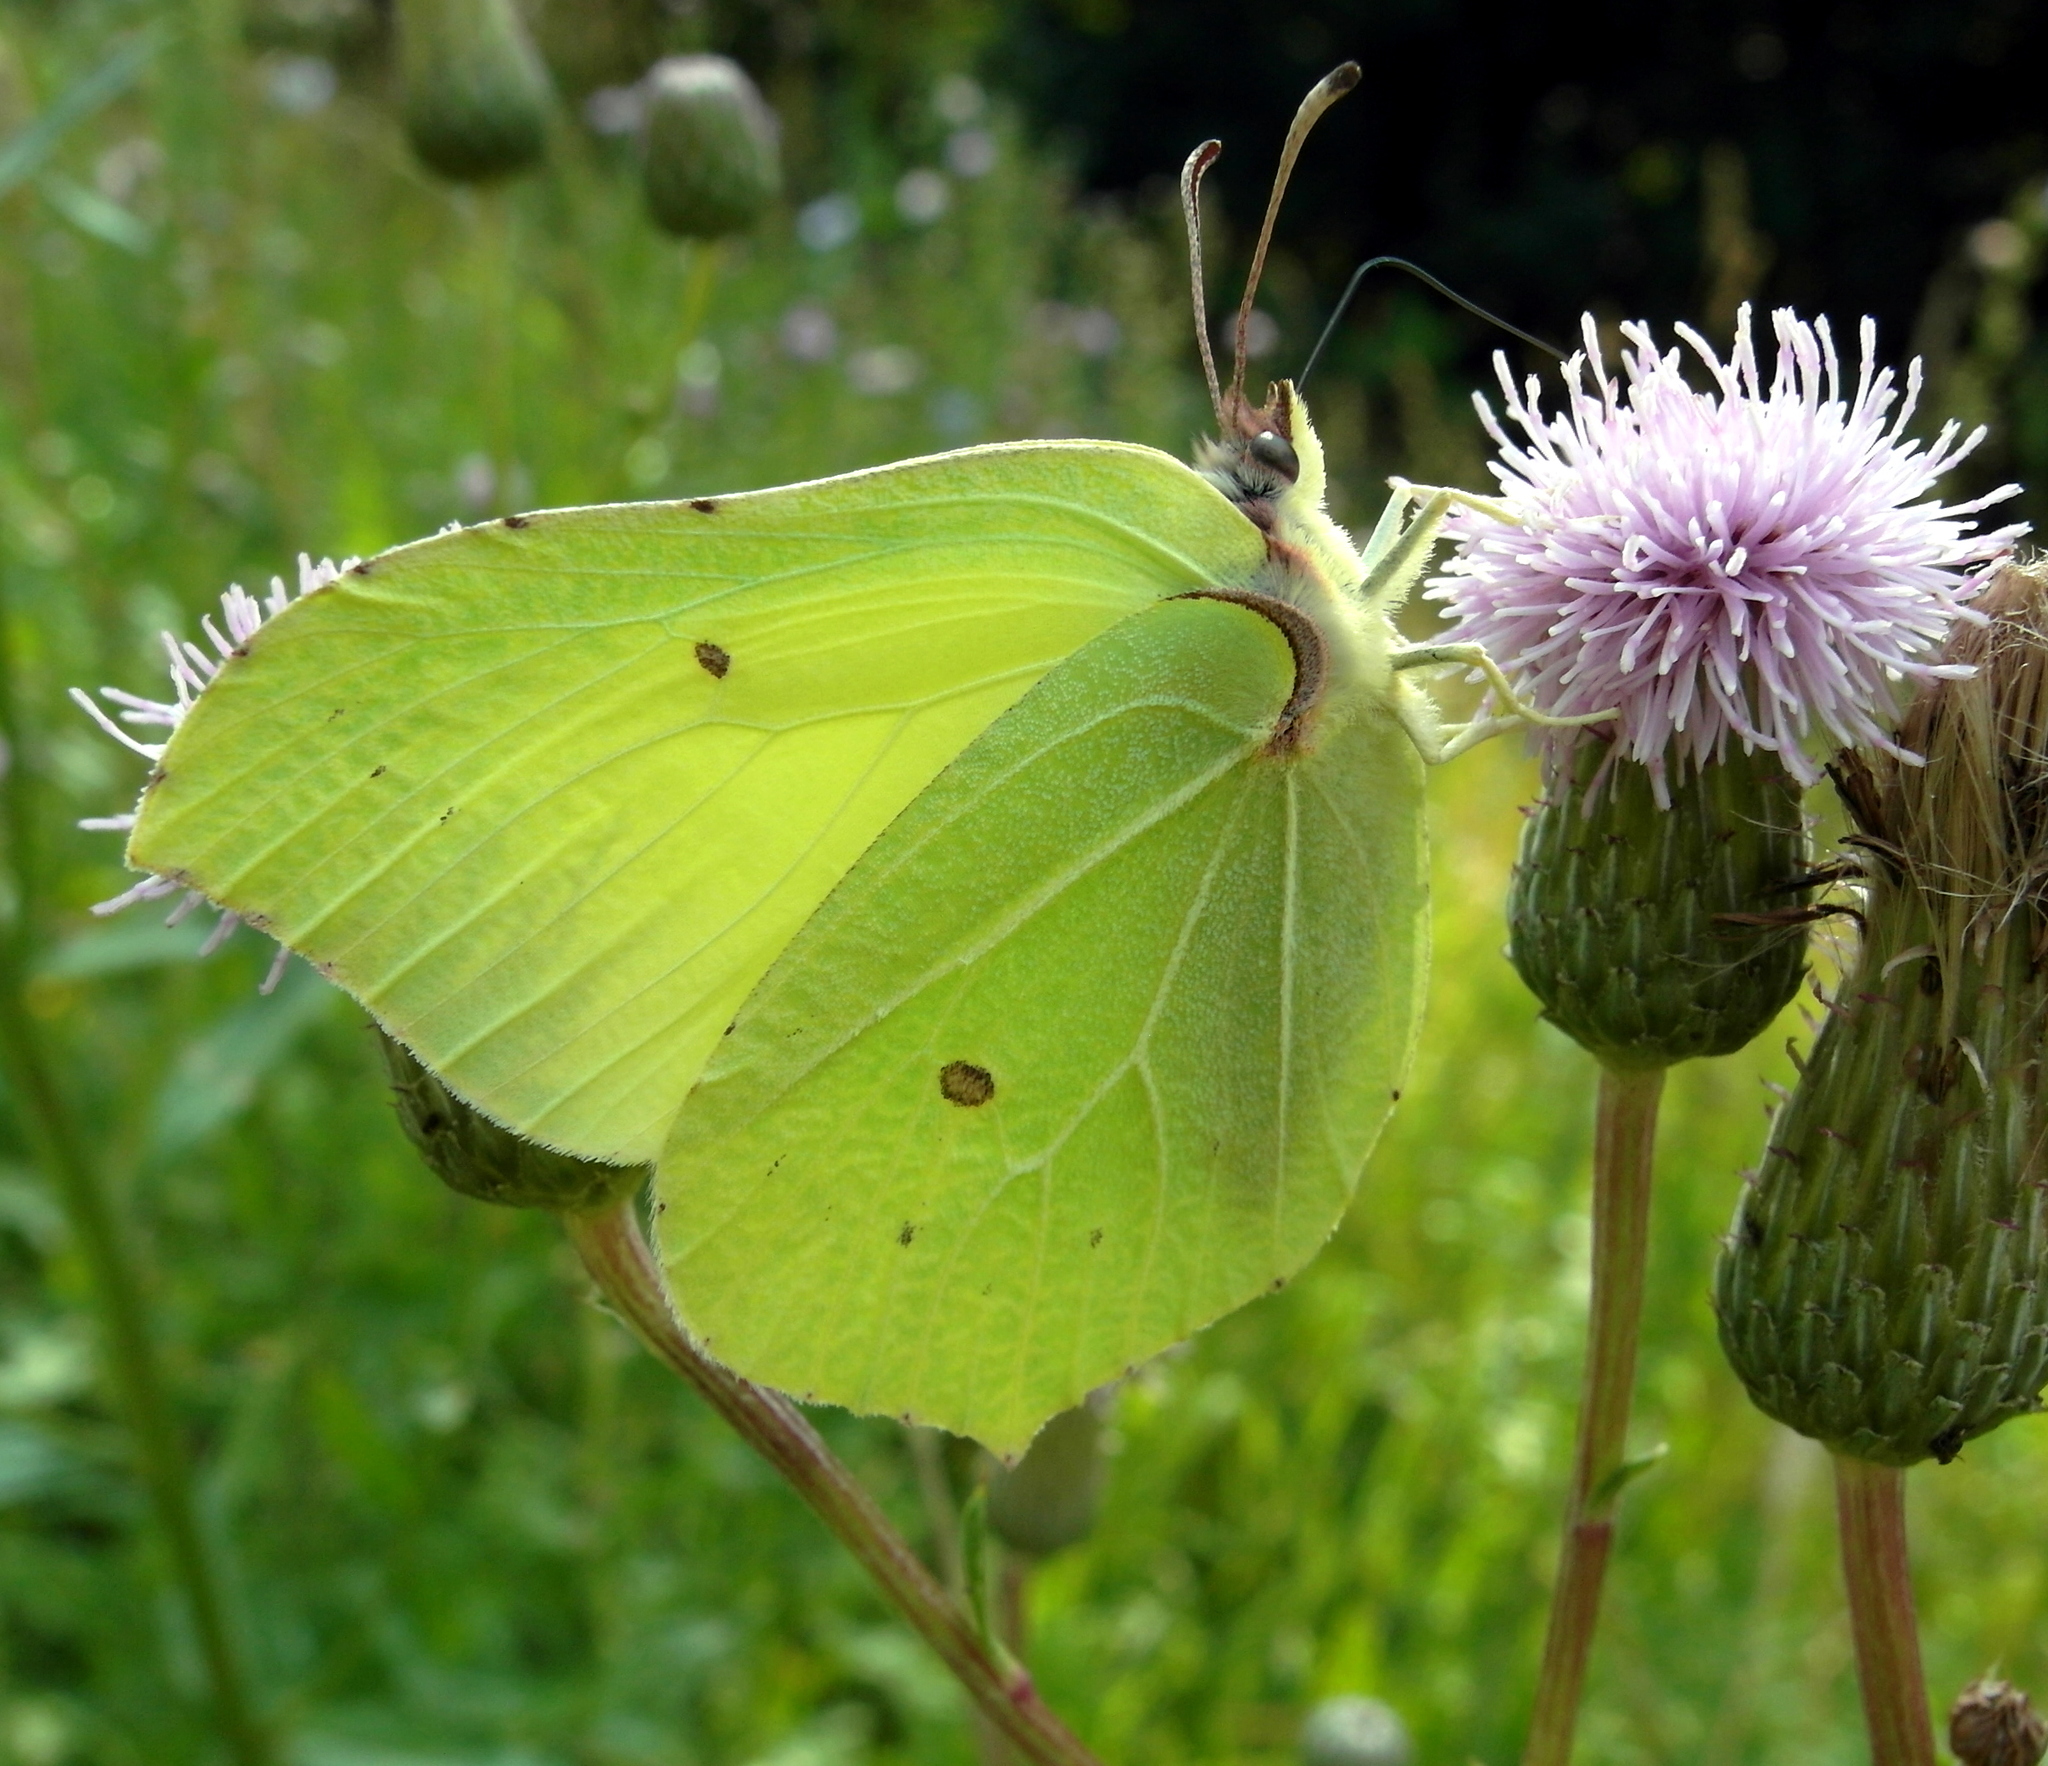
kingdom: Animalia
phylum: Arthropoda
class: Insecta
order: Lepidoptera
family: Pieridae
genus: Gonepteryx
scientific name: Gonepteryx rhamni
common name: Brimstone
